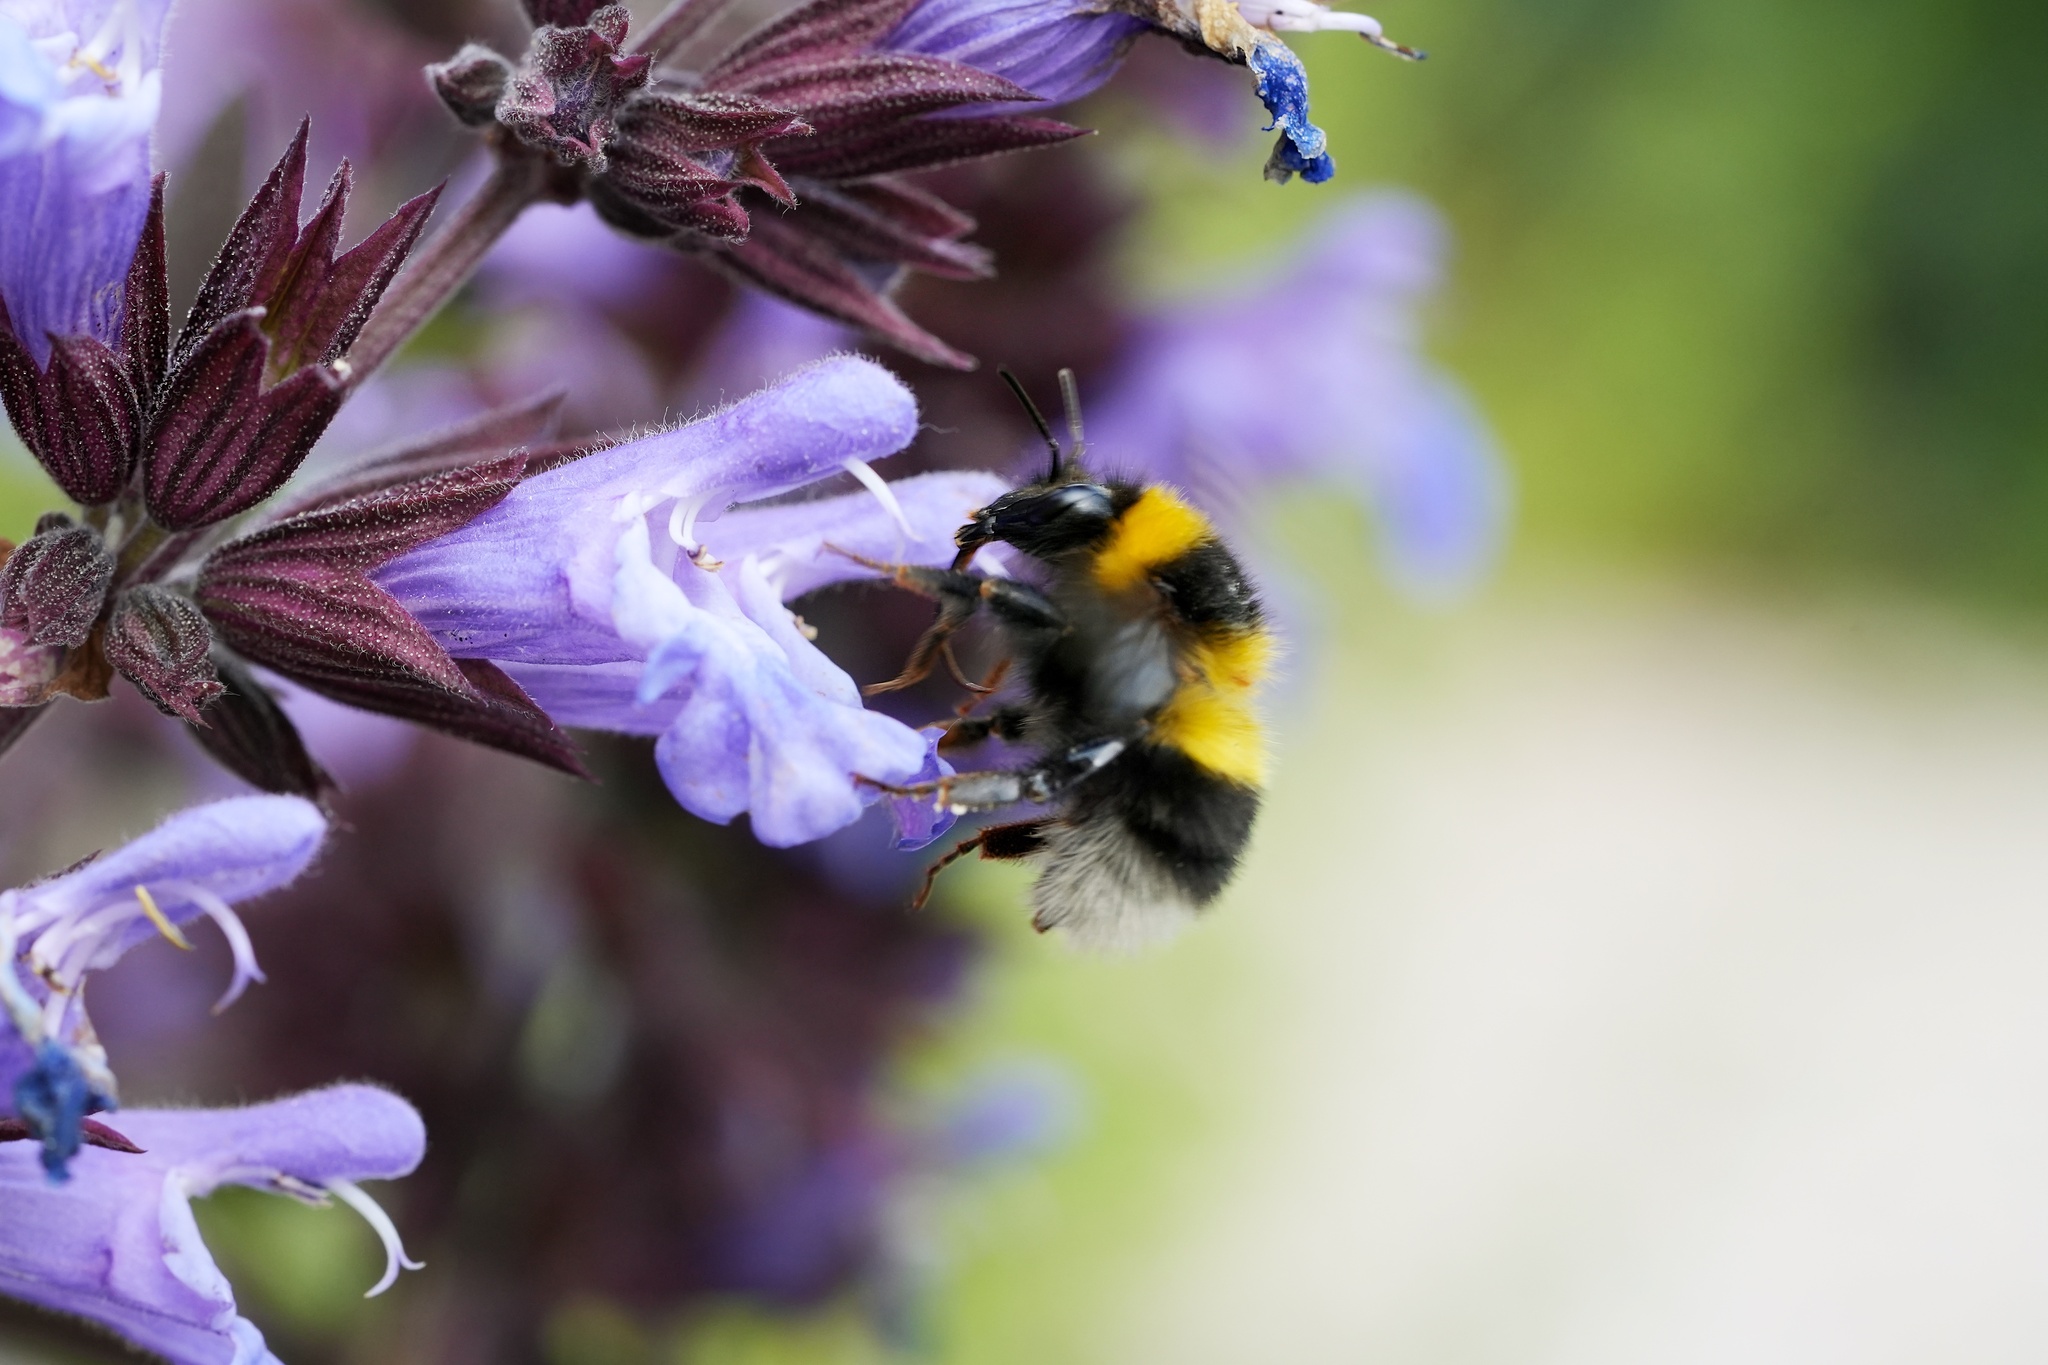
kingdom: Animalia
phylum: Arthropoda
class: Insecta
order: Hymenoptera
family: Apidae
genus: Bombus
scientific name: Bombus hortorum
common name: Garden bumblebee
